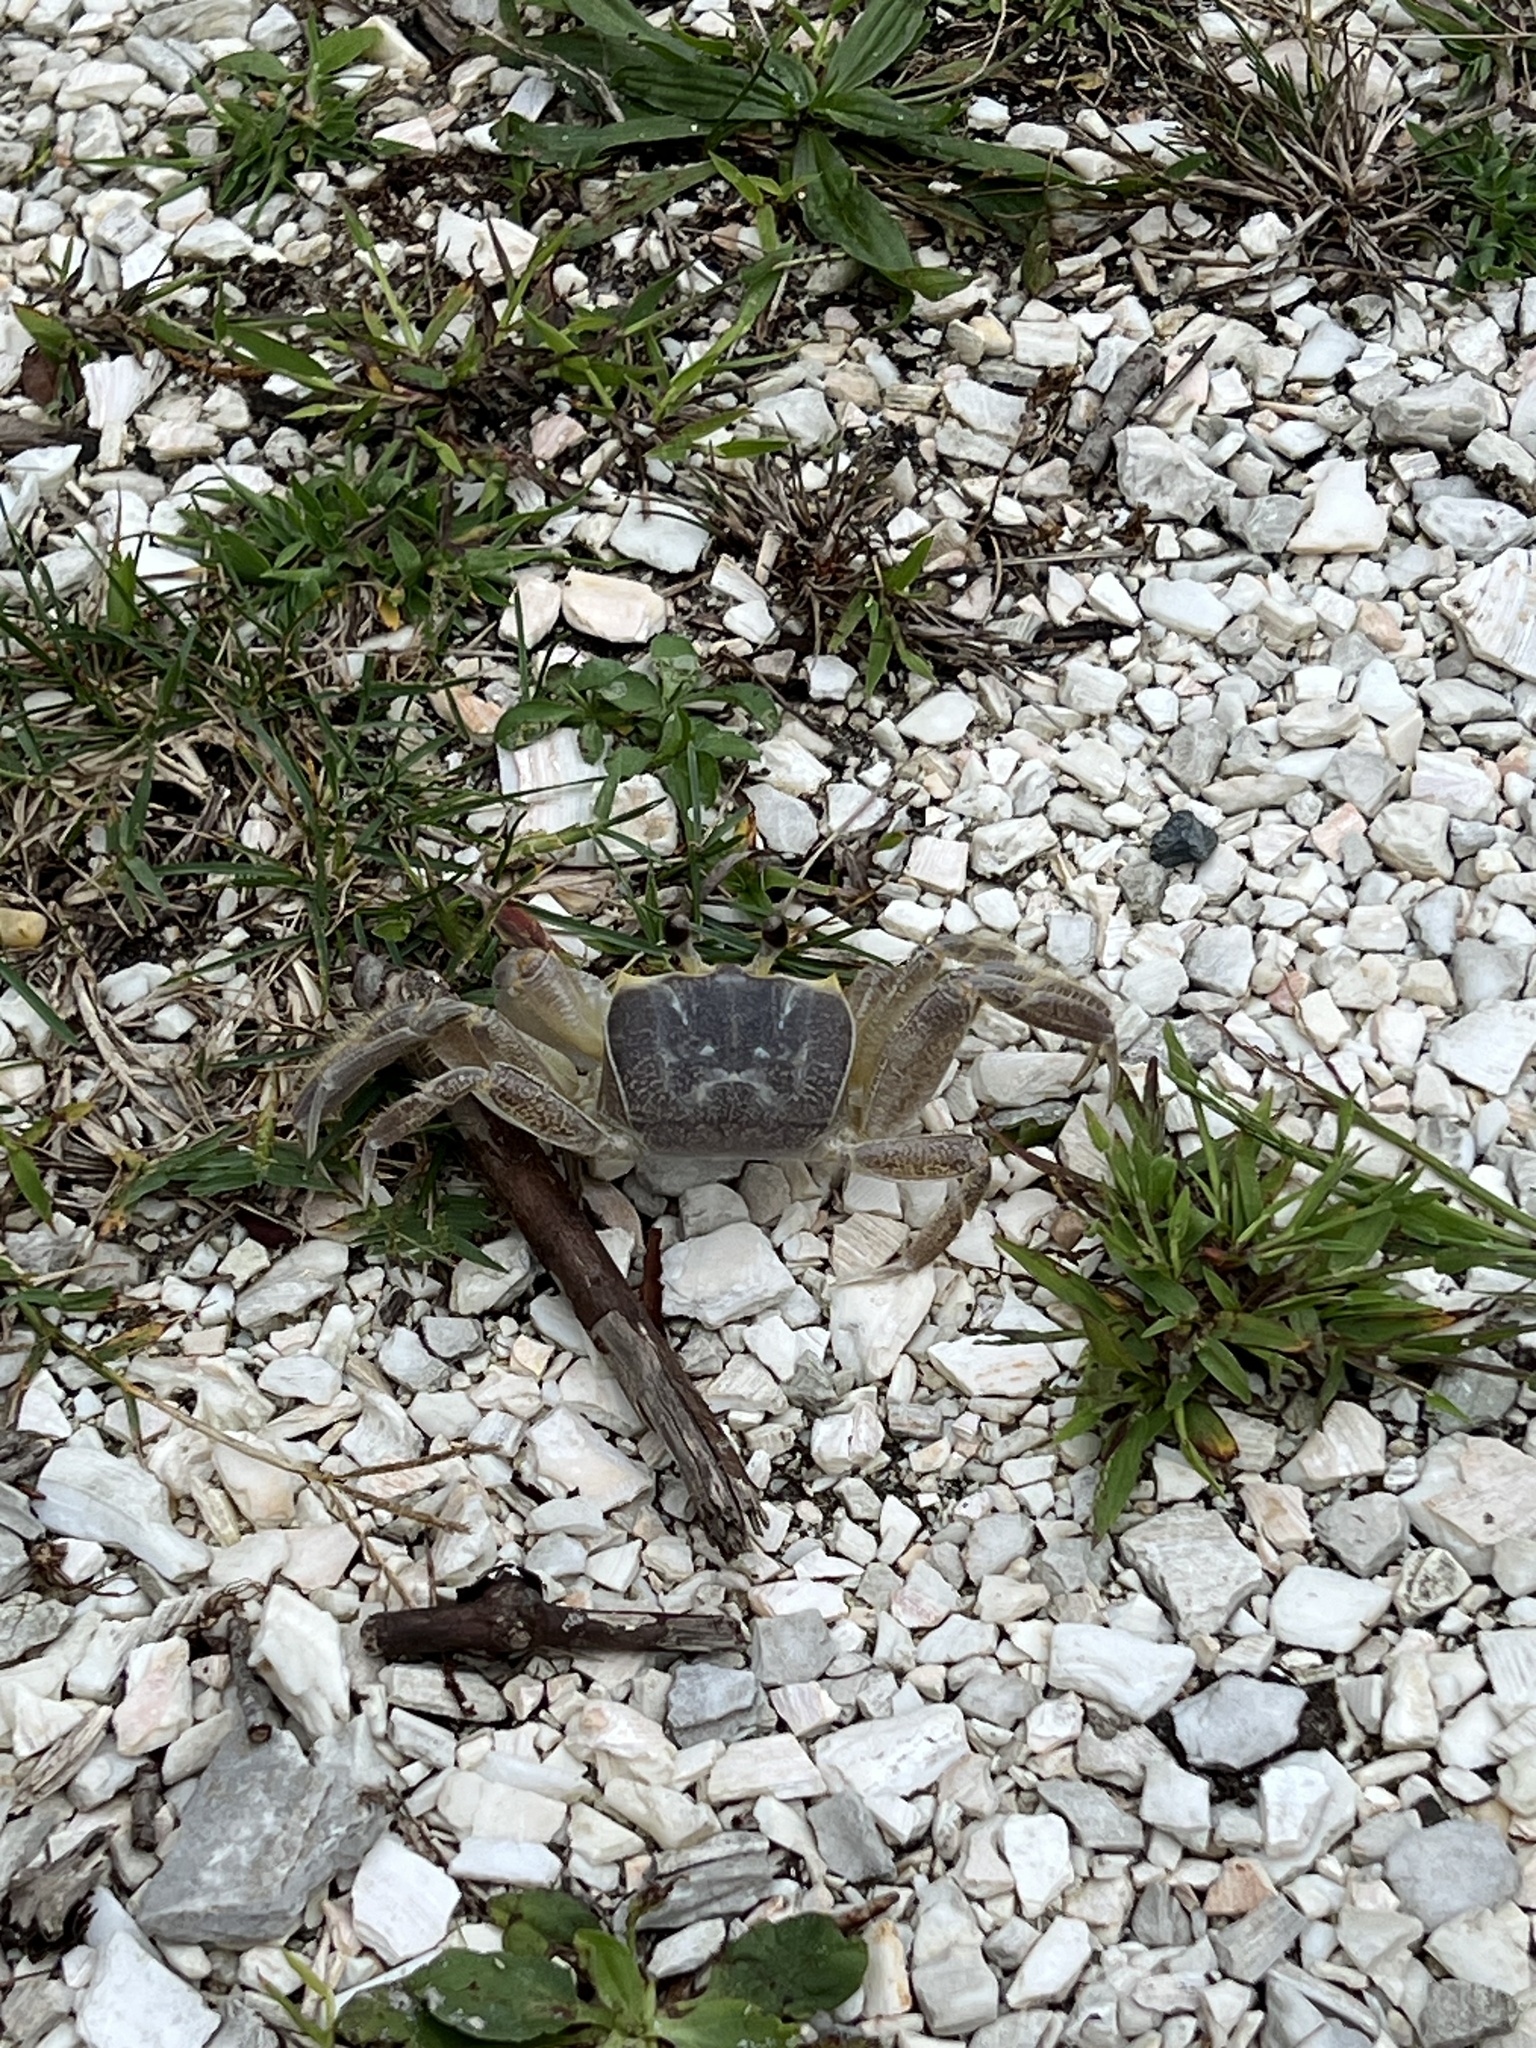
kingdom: Animalia
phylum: Arthropoda
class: Malacostraca
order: Decapoda
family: Ocypodidae
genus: Ocypode
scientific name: Ocypode quadrata
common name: Ghost crab
